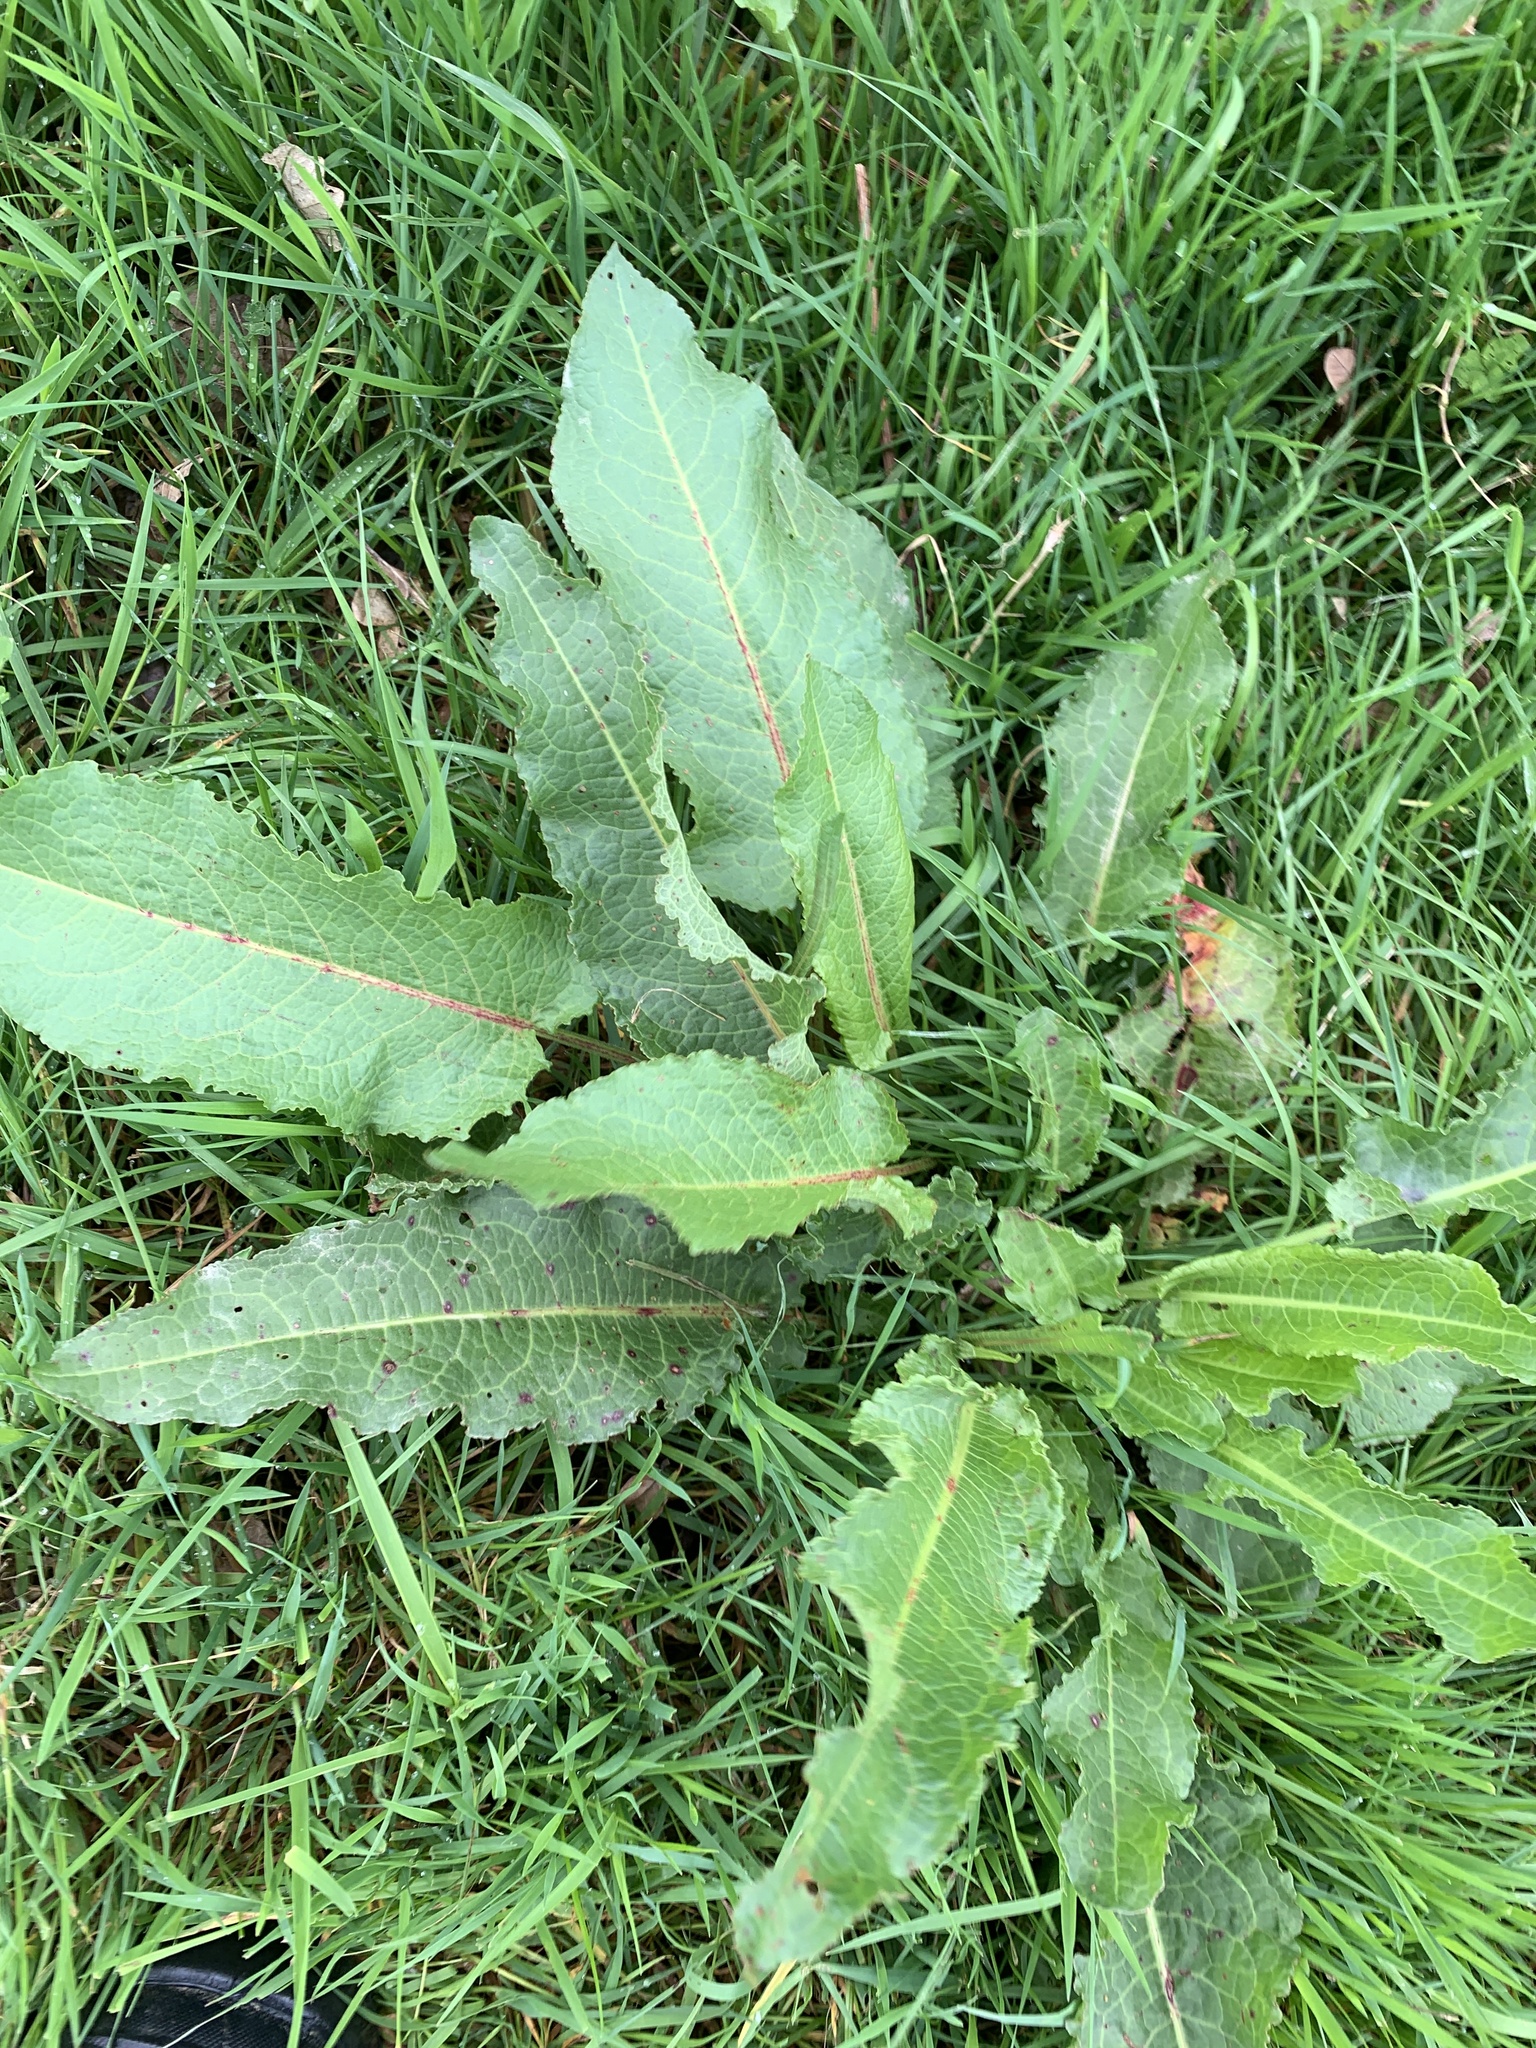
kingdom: Plantae
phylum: Tracheophyta
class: Magnoliopsida
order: Caryophyllales
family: Polygonaceae
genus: Rumex
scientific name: Rumex obtusifolius
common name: Bitter dock
